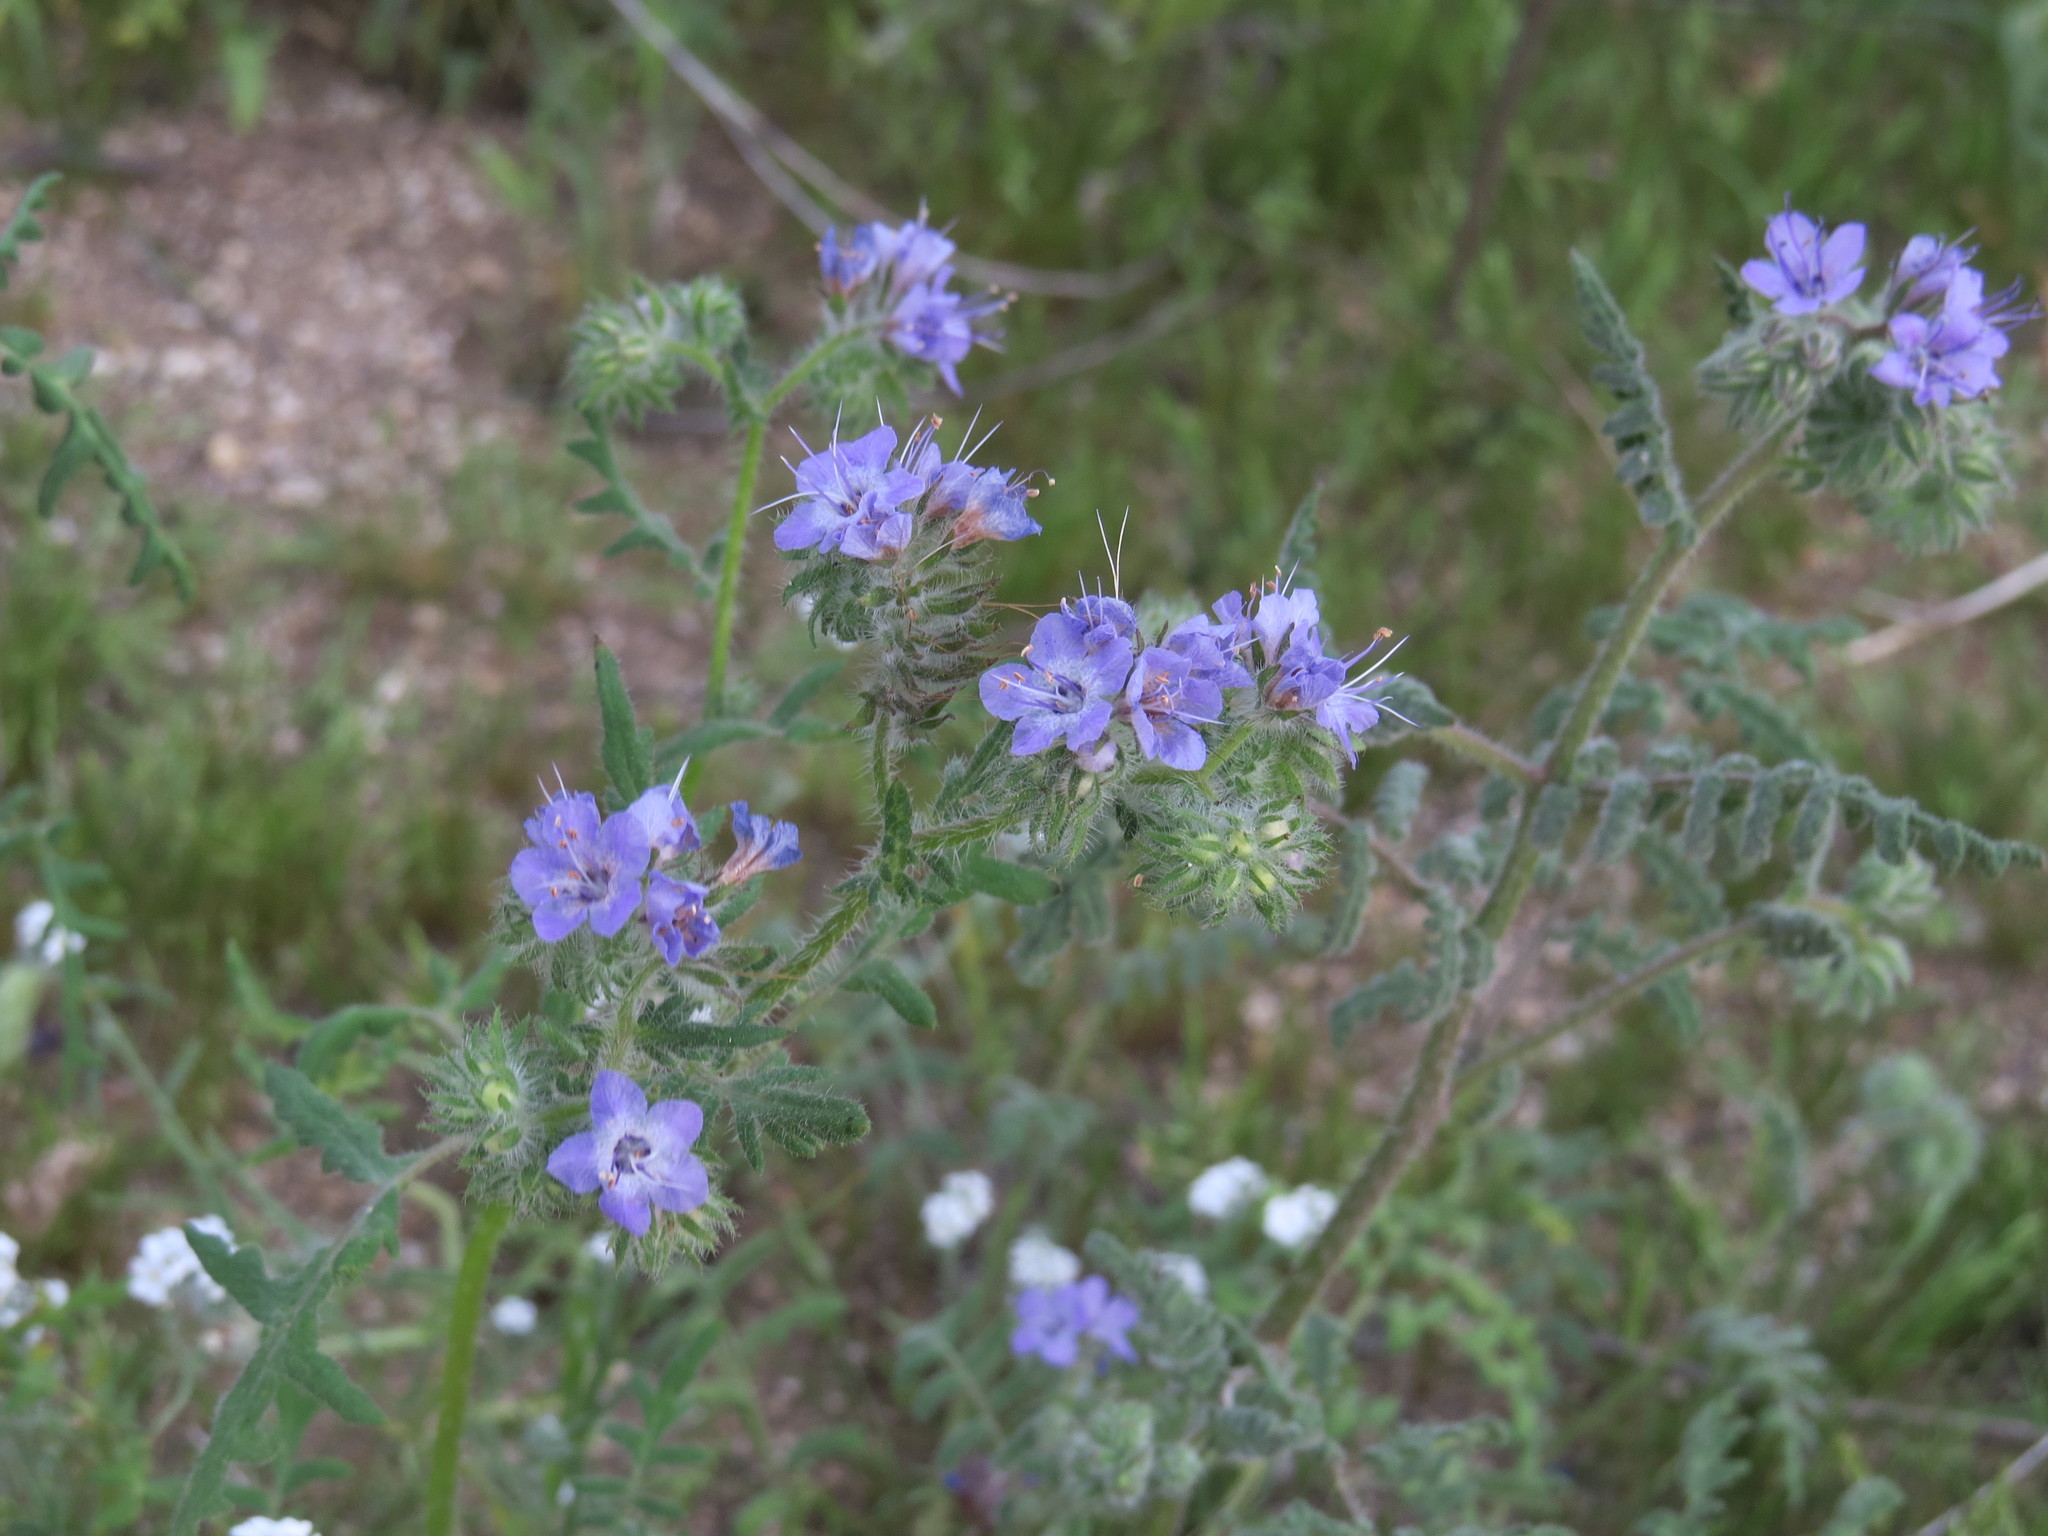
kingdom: Plantae
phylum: Tracheophyta
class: Magnoliopsida
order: Boraginales
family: Hydrophyllaceae
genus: Phacelia
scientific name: Phacelia distans
